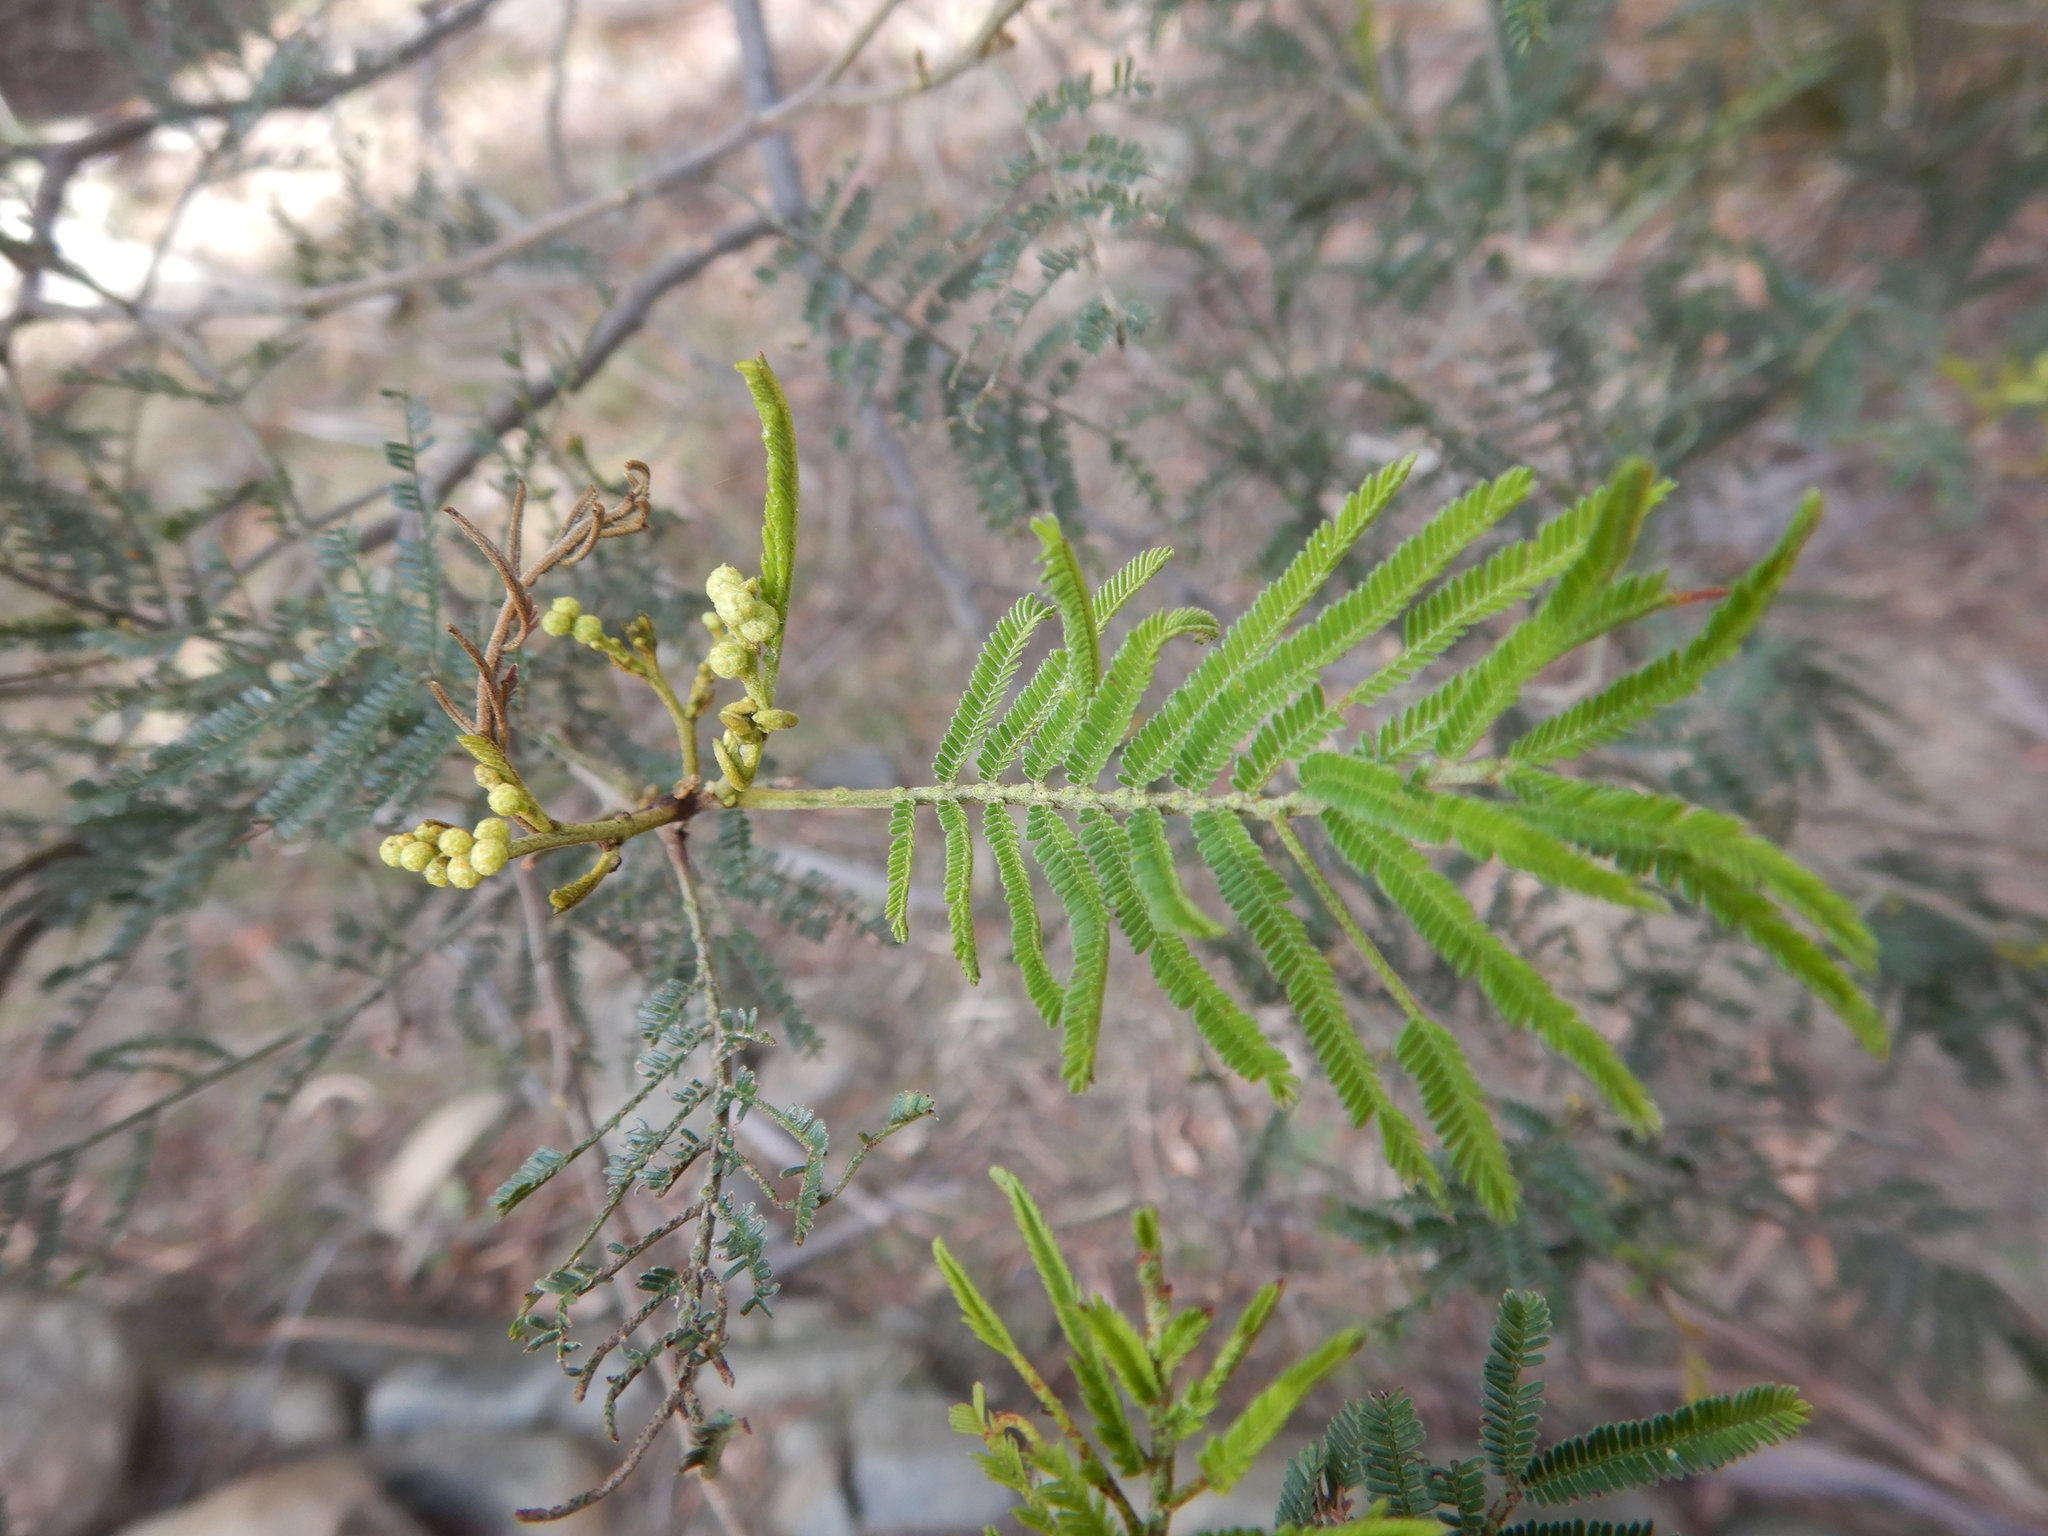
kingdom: Plantae
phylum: Tracheophyta
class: Magnoliopsida
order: Fabales
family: Fabaceae
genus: Acacia
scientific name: Acacia mearnsii
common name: Black wattle
